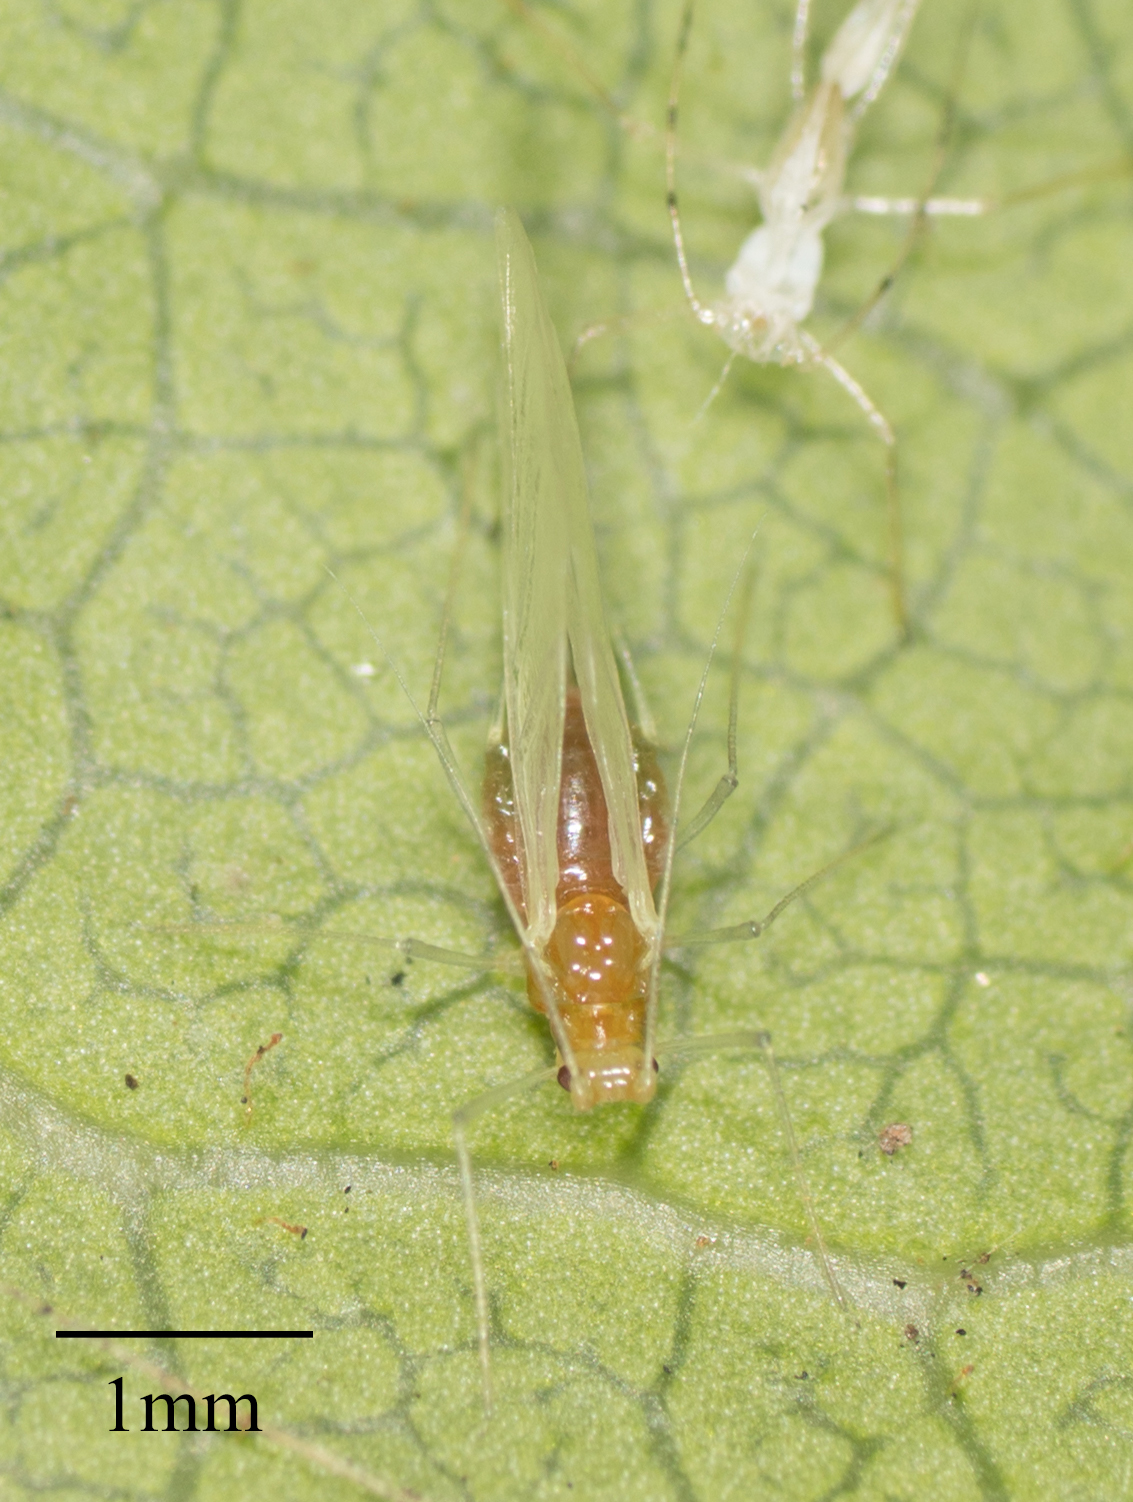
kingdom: Animalia
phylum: Arthropoda
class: Insecta
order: Hemiptera
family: Aphididae
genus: Wahlgreniella
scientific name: Wahlgreniella nervata
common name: Pale green aphid
